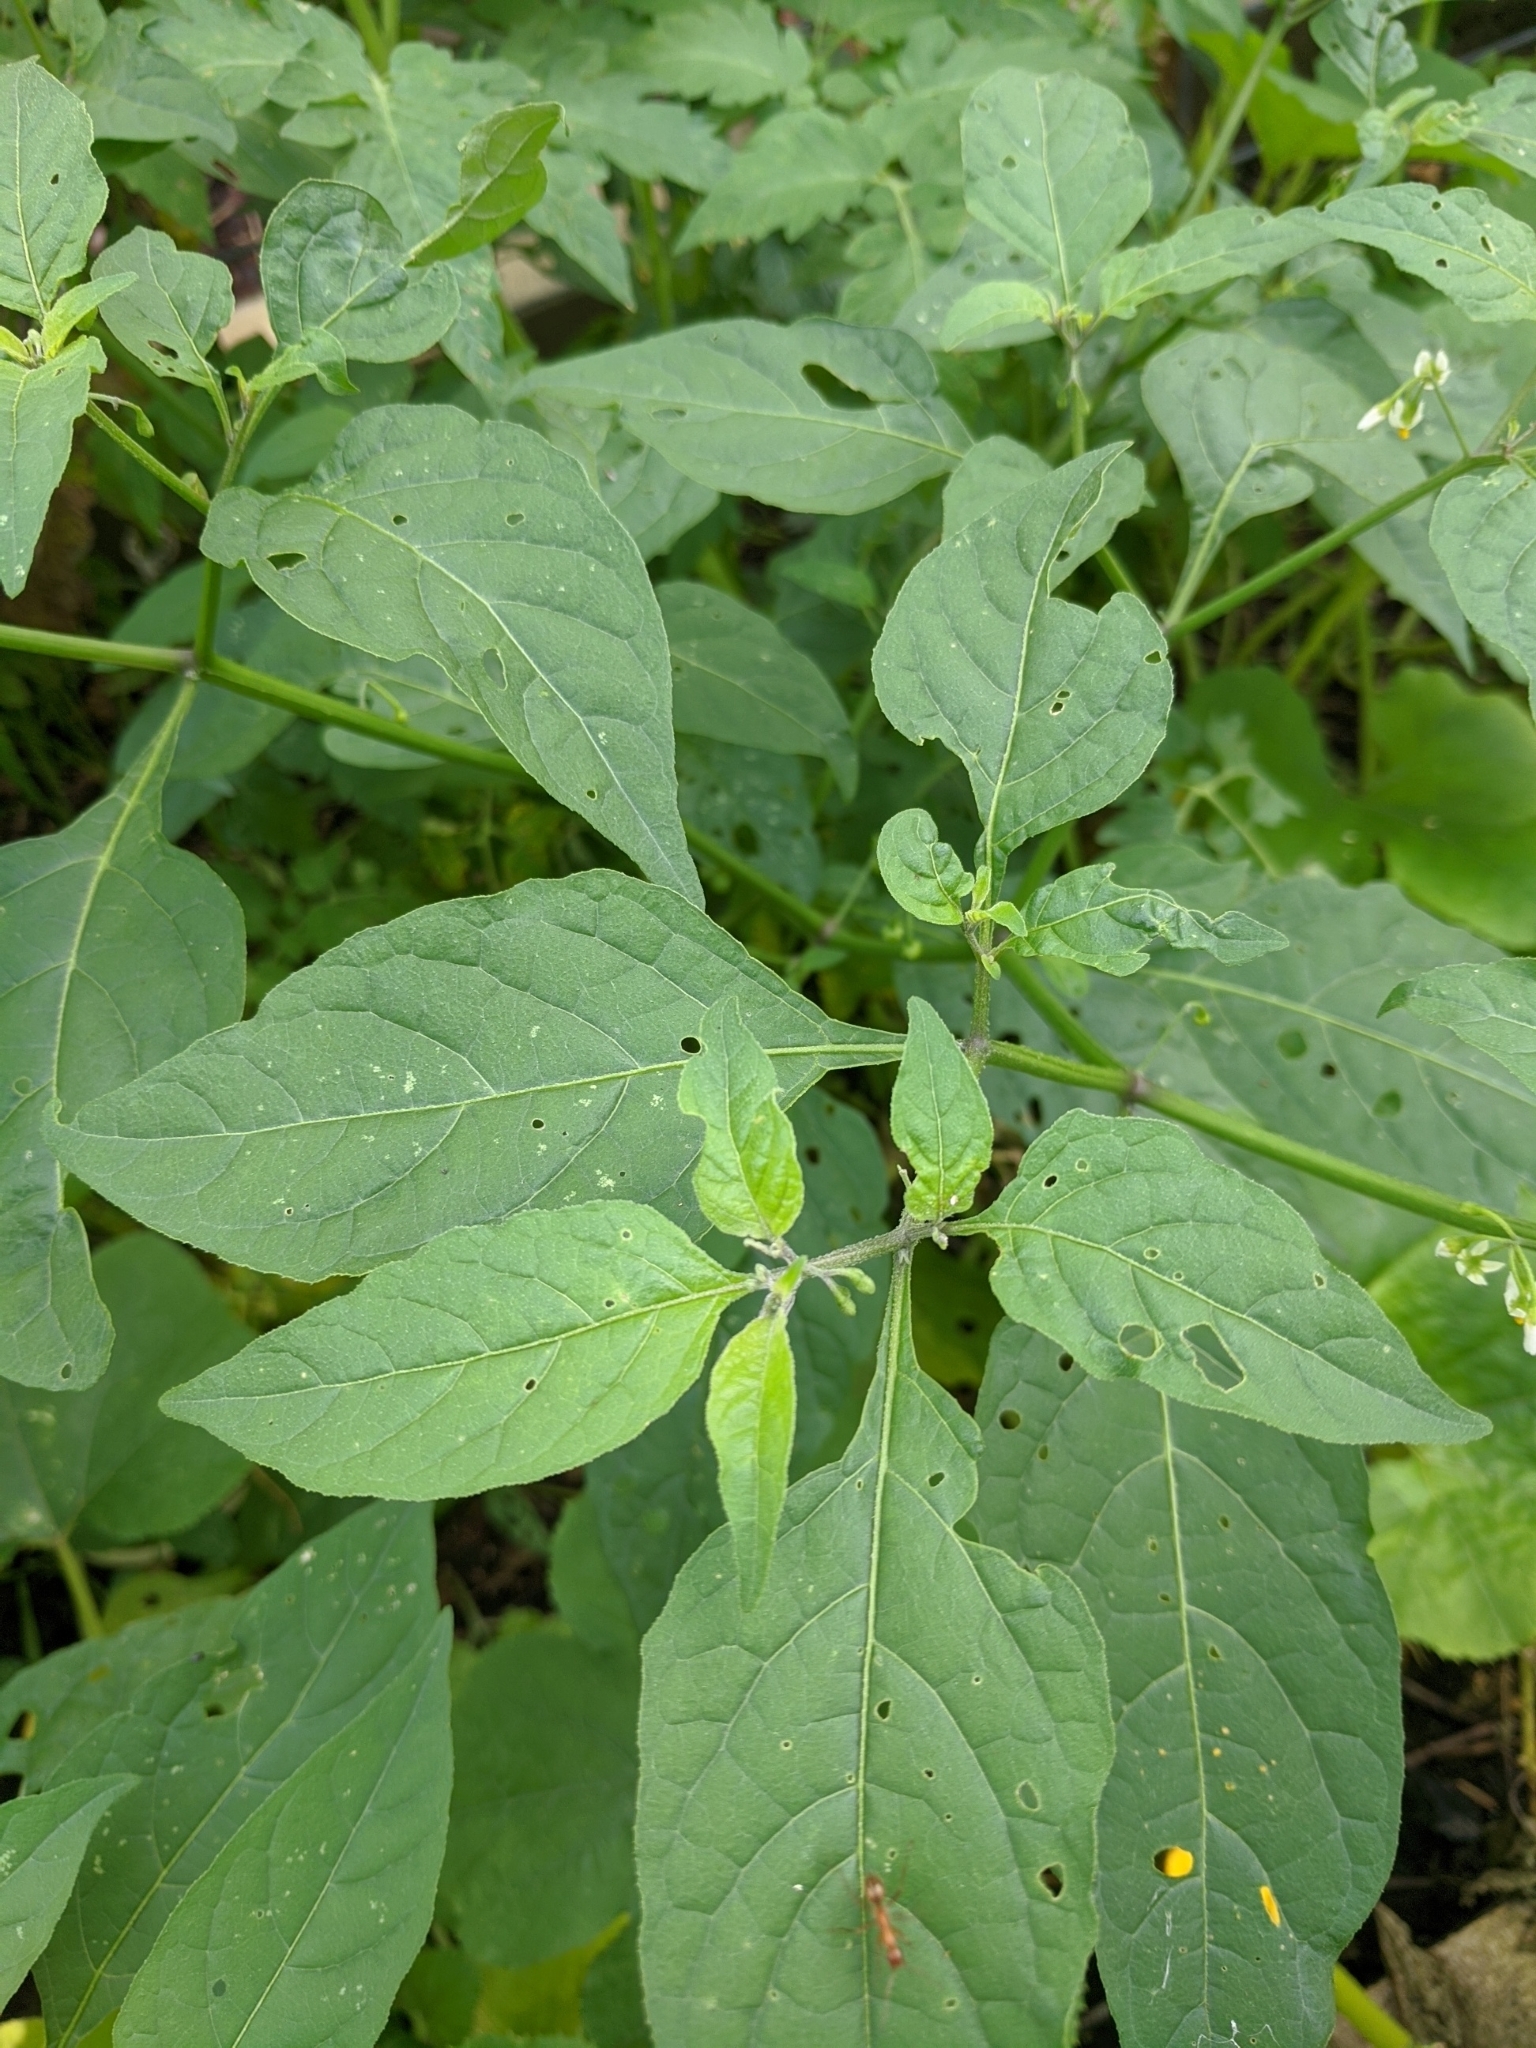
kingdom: Plantae
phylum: Tracheophyta
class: Magnoliopsida
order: Solanales
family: Solanaceae
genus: Solanum
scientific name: Solanum emulans
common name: Eastern black nightshade
